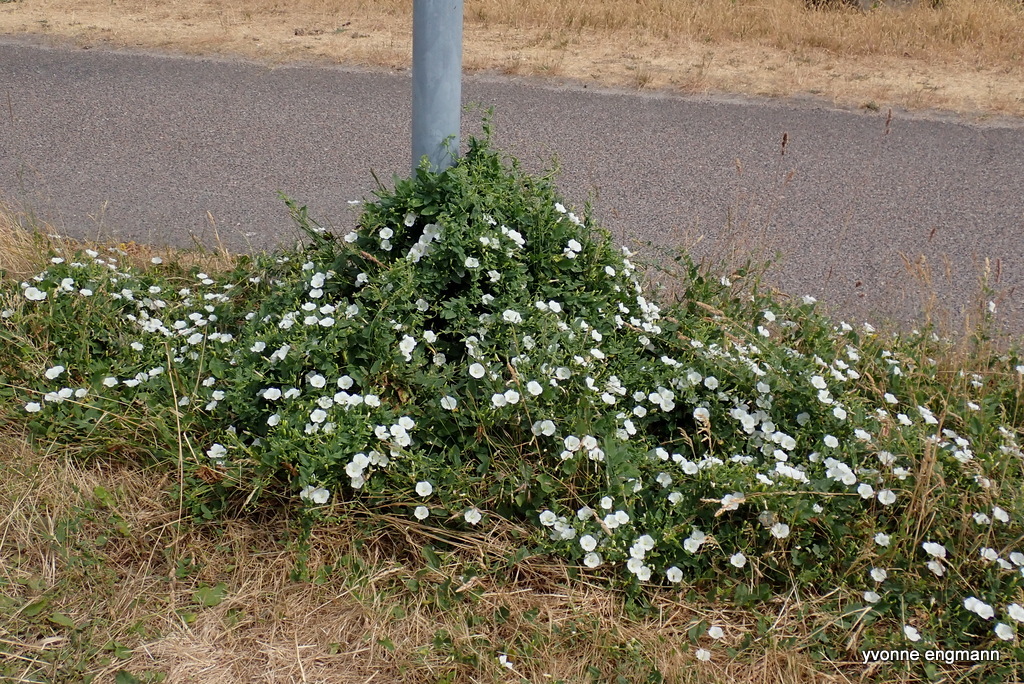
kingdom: Plantae
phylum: Tracheophyta
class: Magnoliopsida
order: Solanales
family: Convolvulaceae
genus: Convolvulus
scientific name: Convolvulus arvensis
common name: Field bindweed
